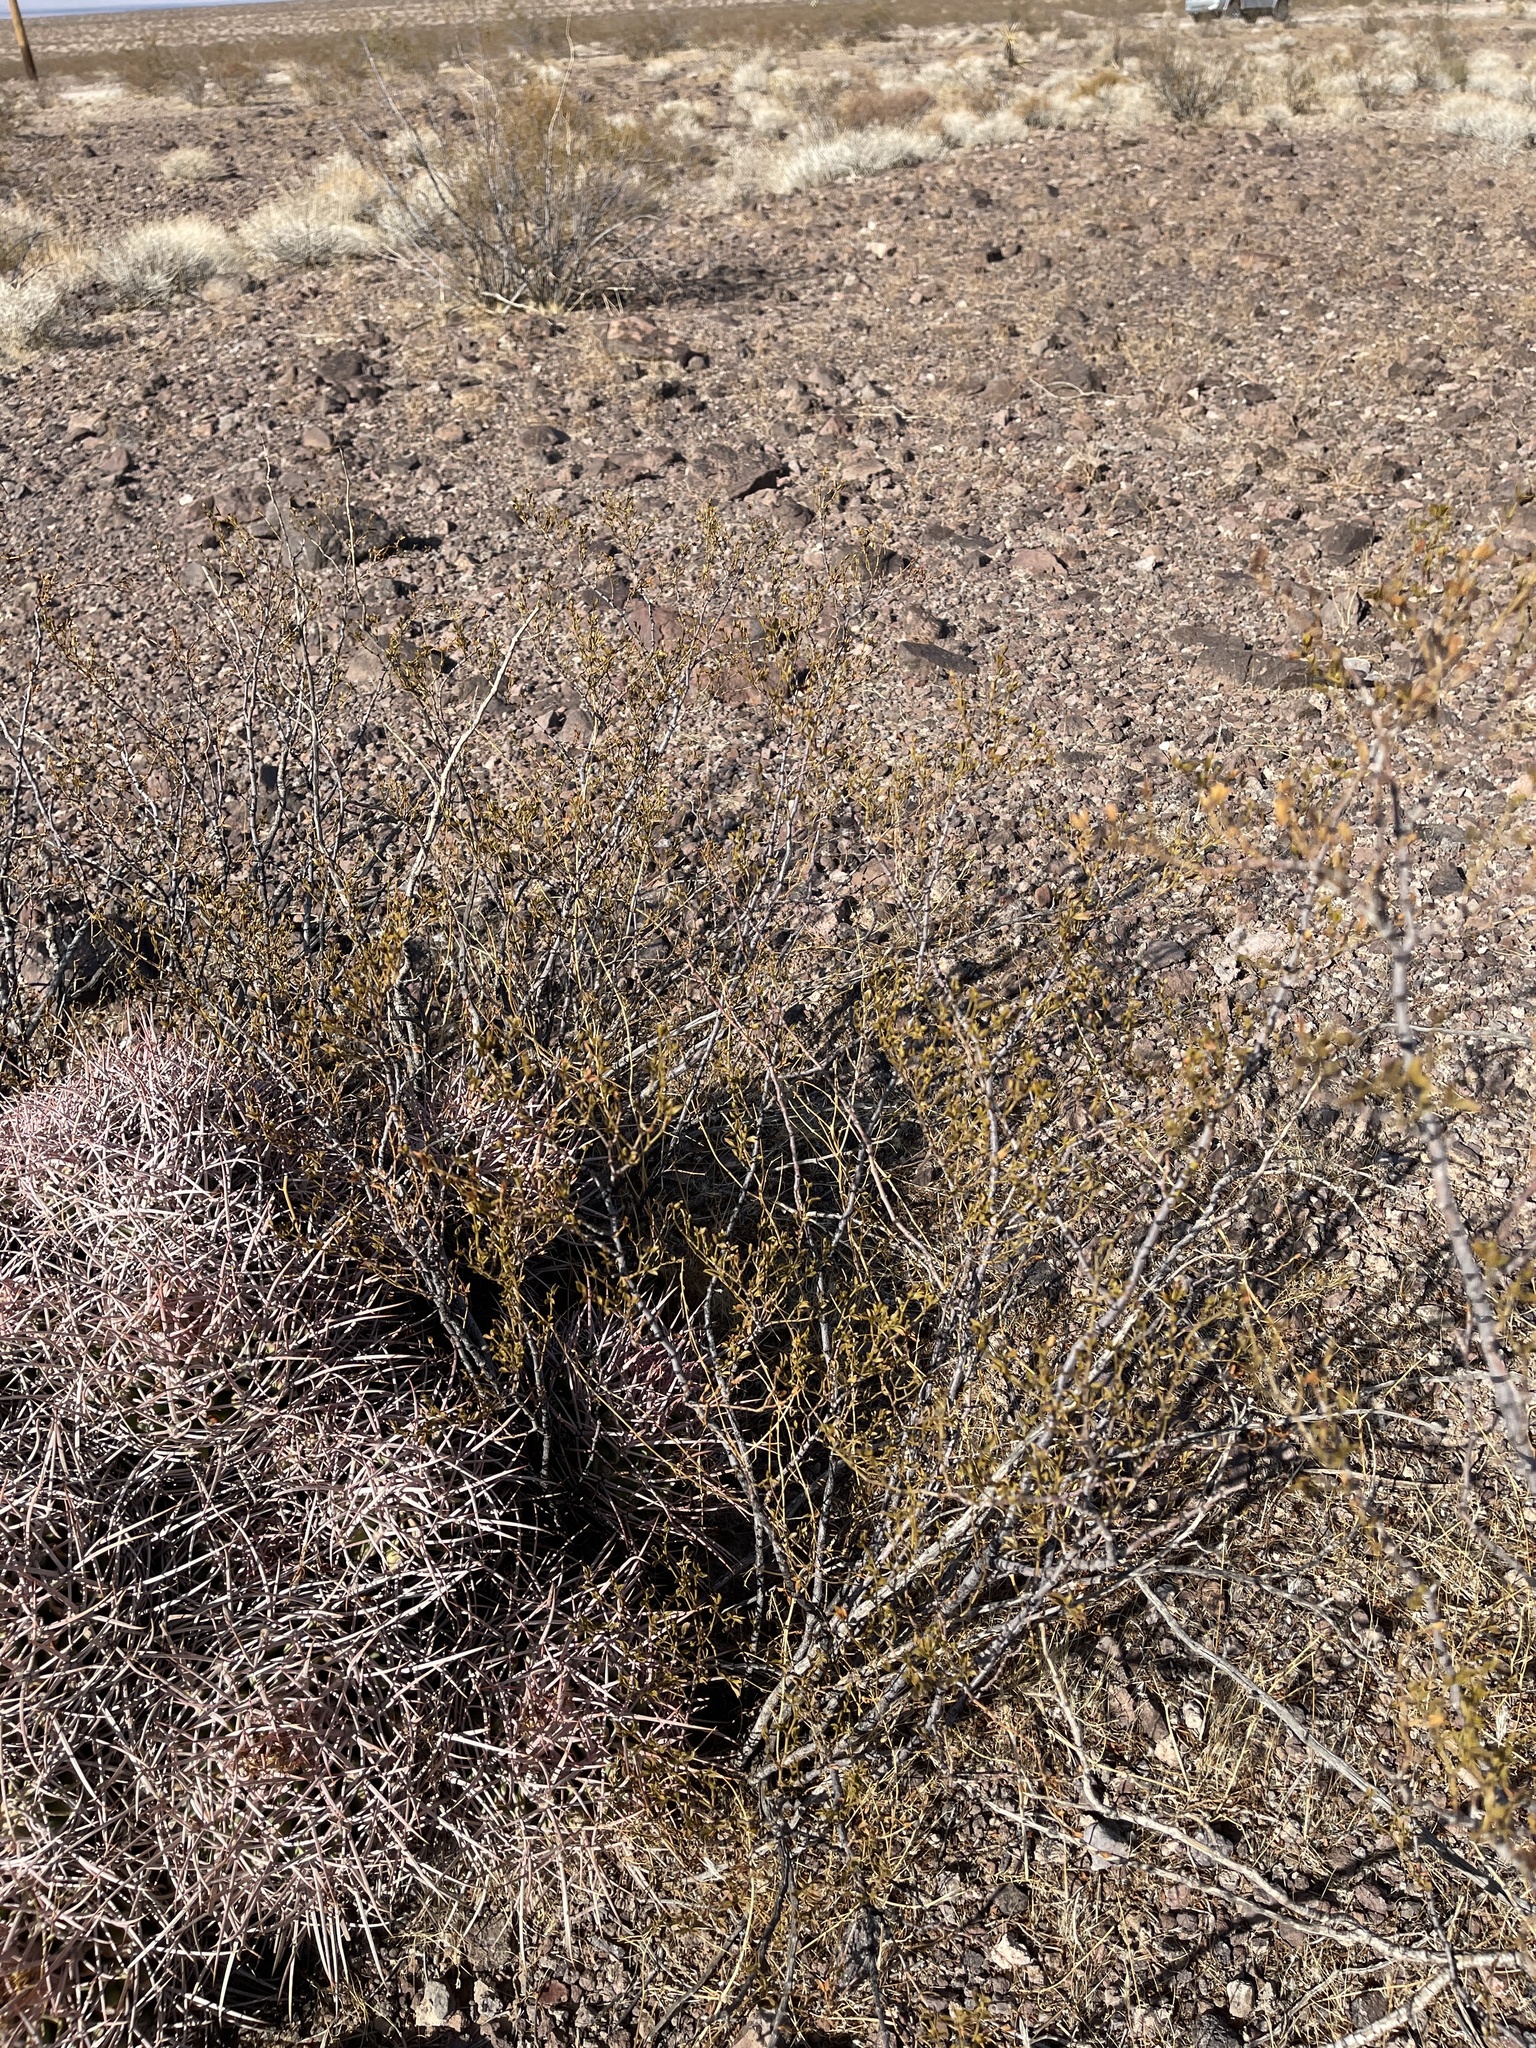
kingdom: Plantae
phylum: Tracheophyta
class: Magnoliopsida
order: Zygophyllales
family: Zygophyllaceae
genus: Larrea
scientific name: Larrea tridentata
